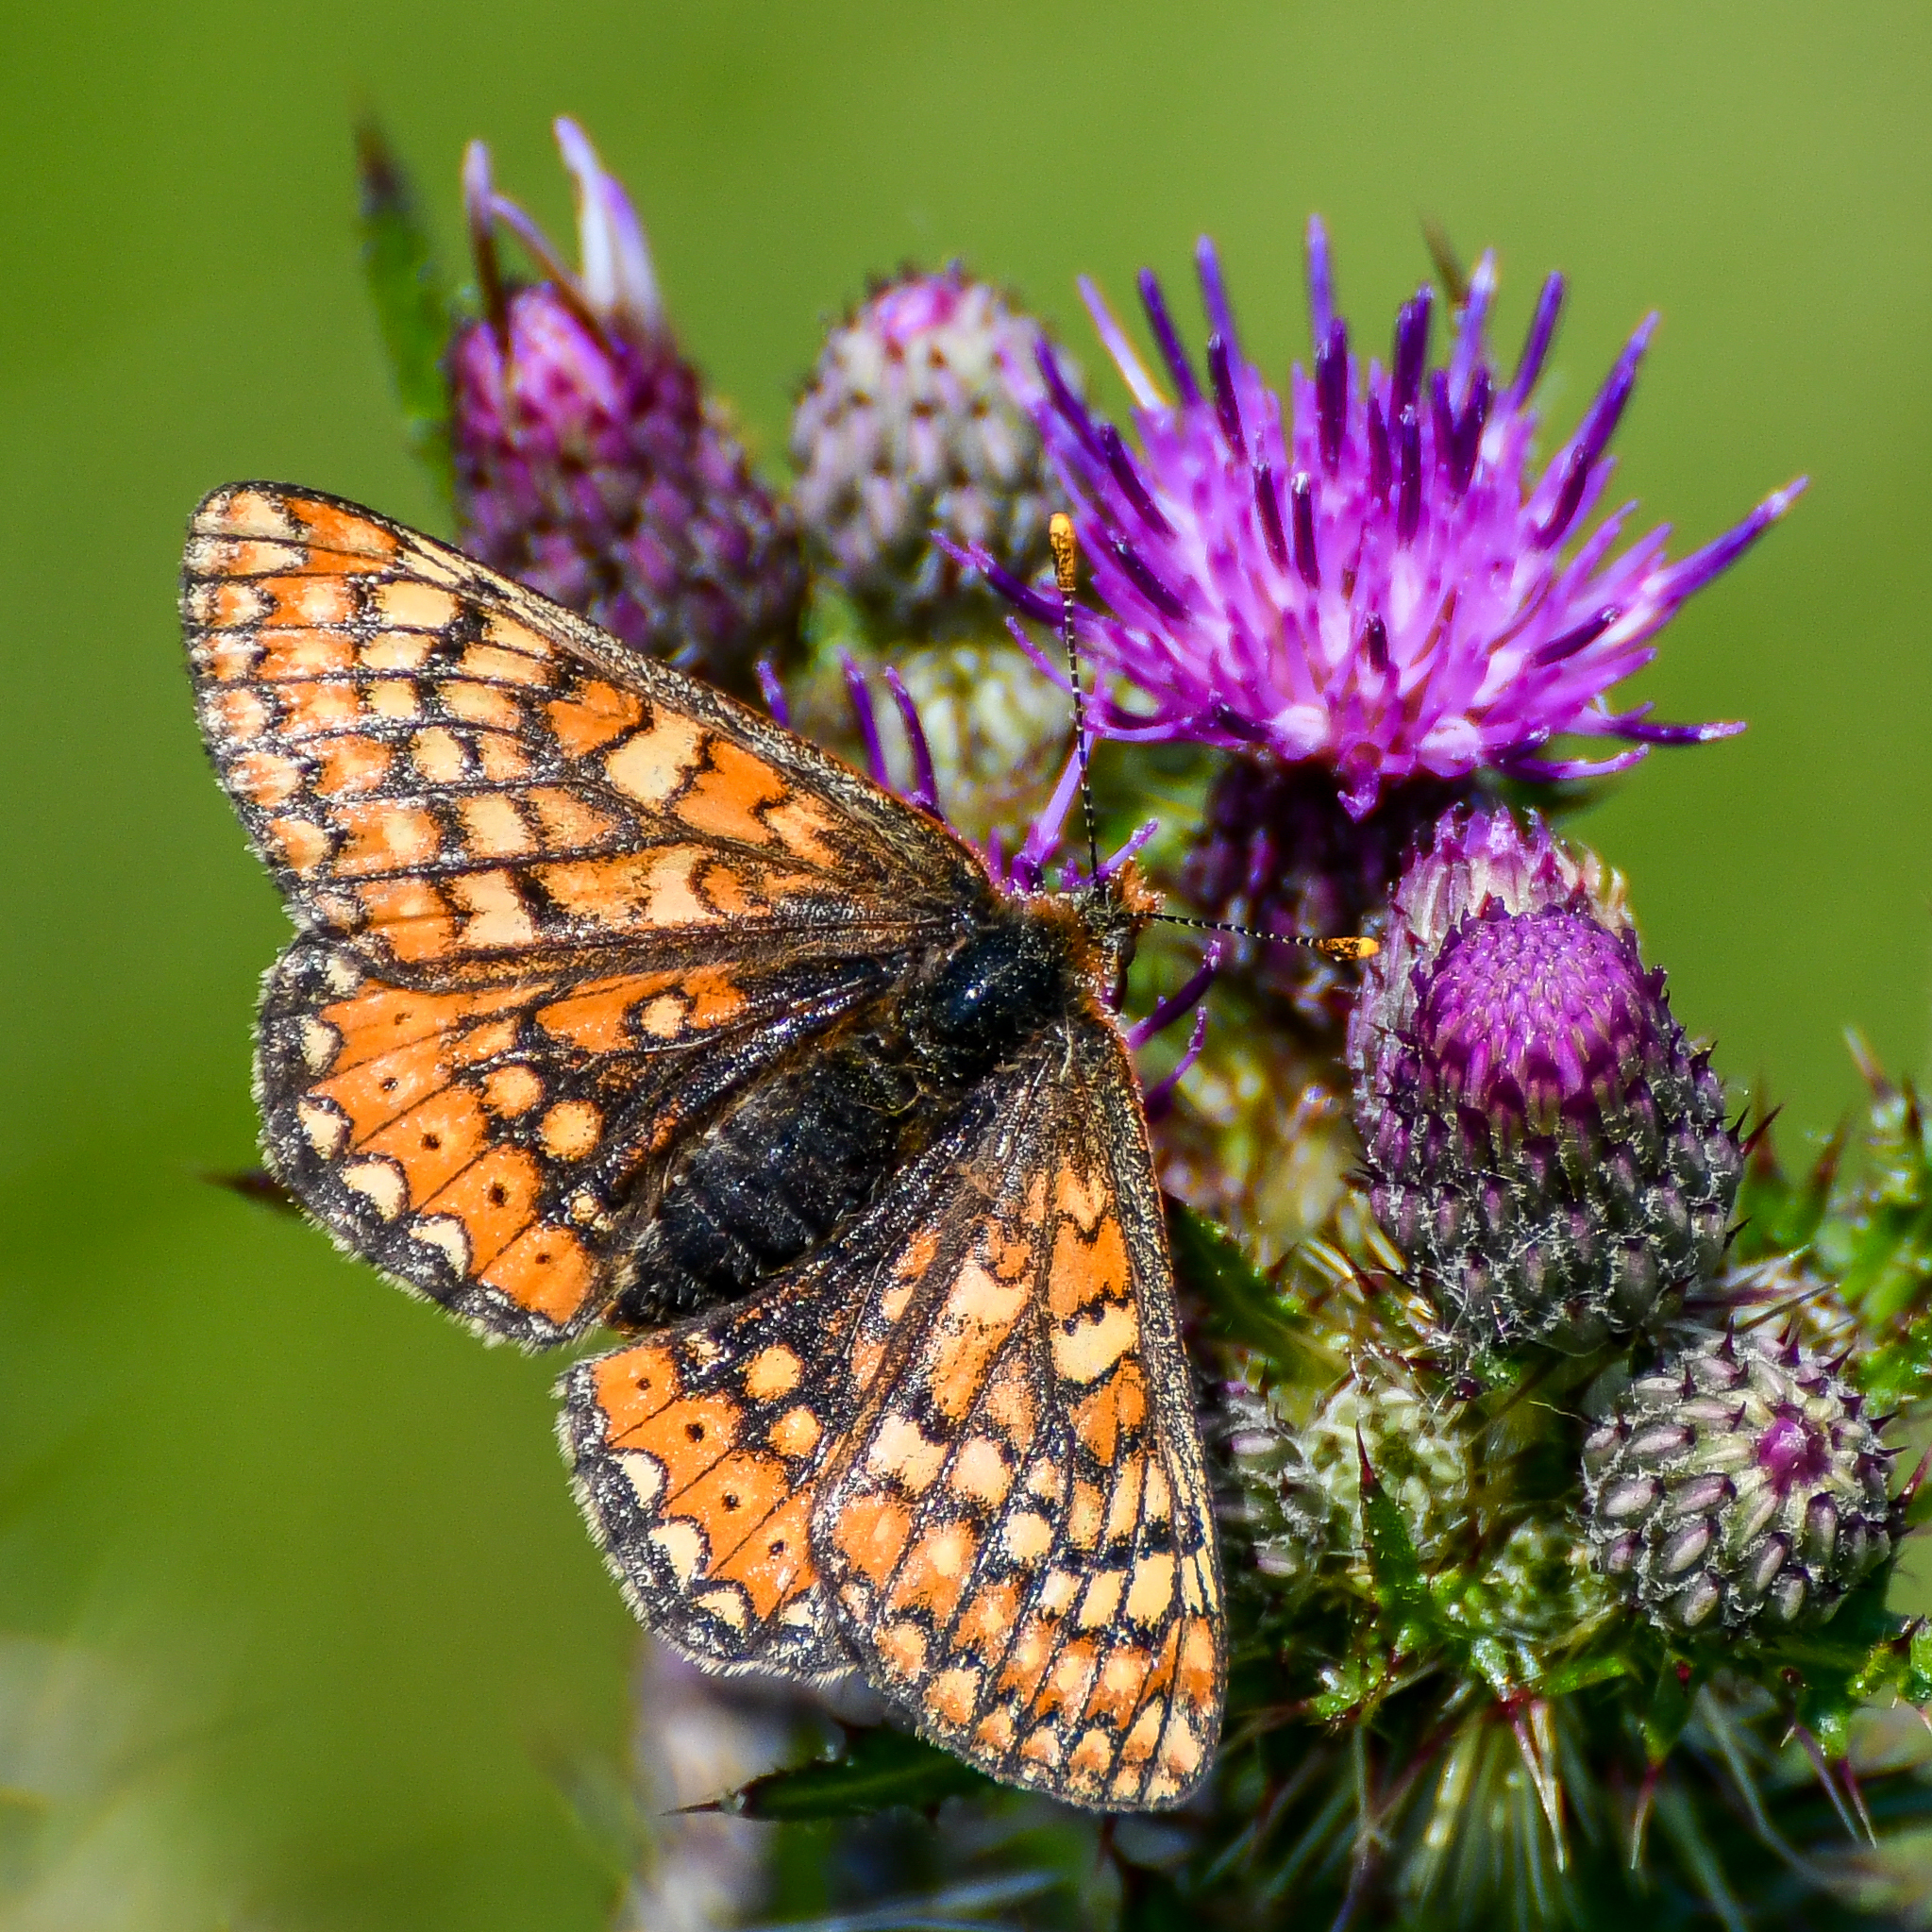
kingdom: Animalia
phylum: Arthropoda
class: Insecta
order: Lepidoptera
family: Nymphalidae
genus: Euphydryas
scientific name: Euphydryas aurinia
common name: Marsh fritillary
